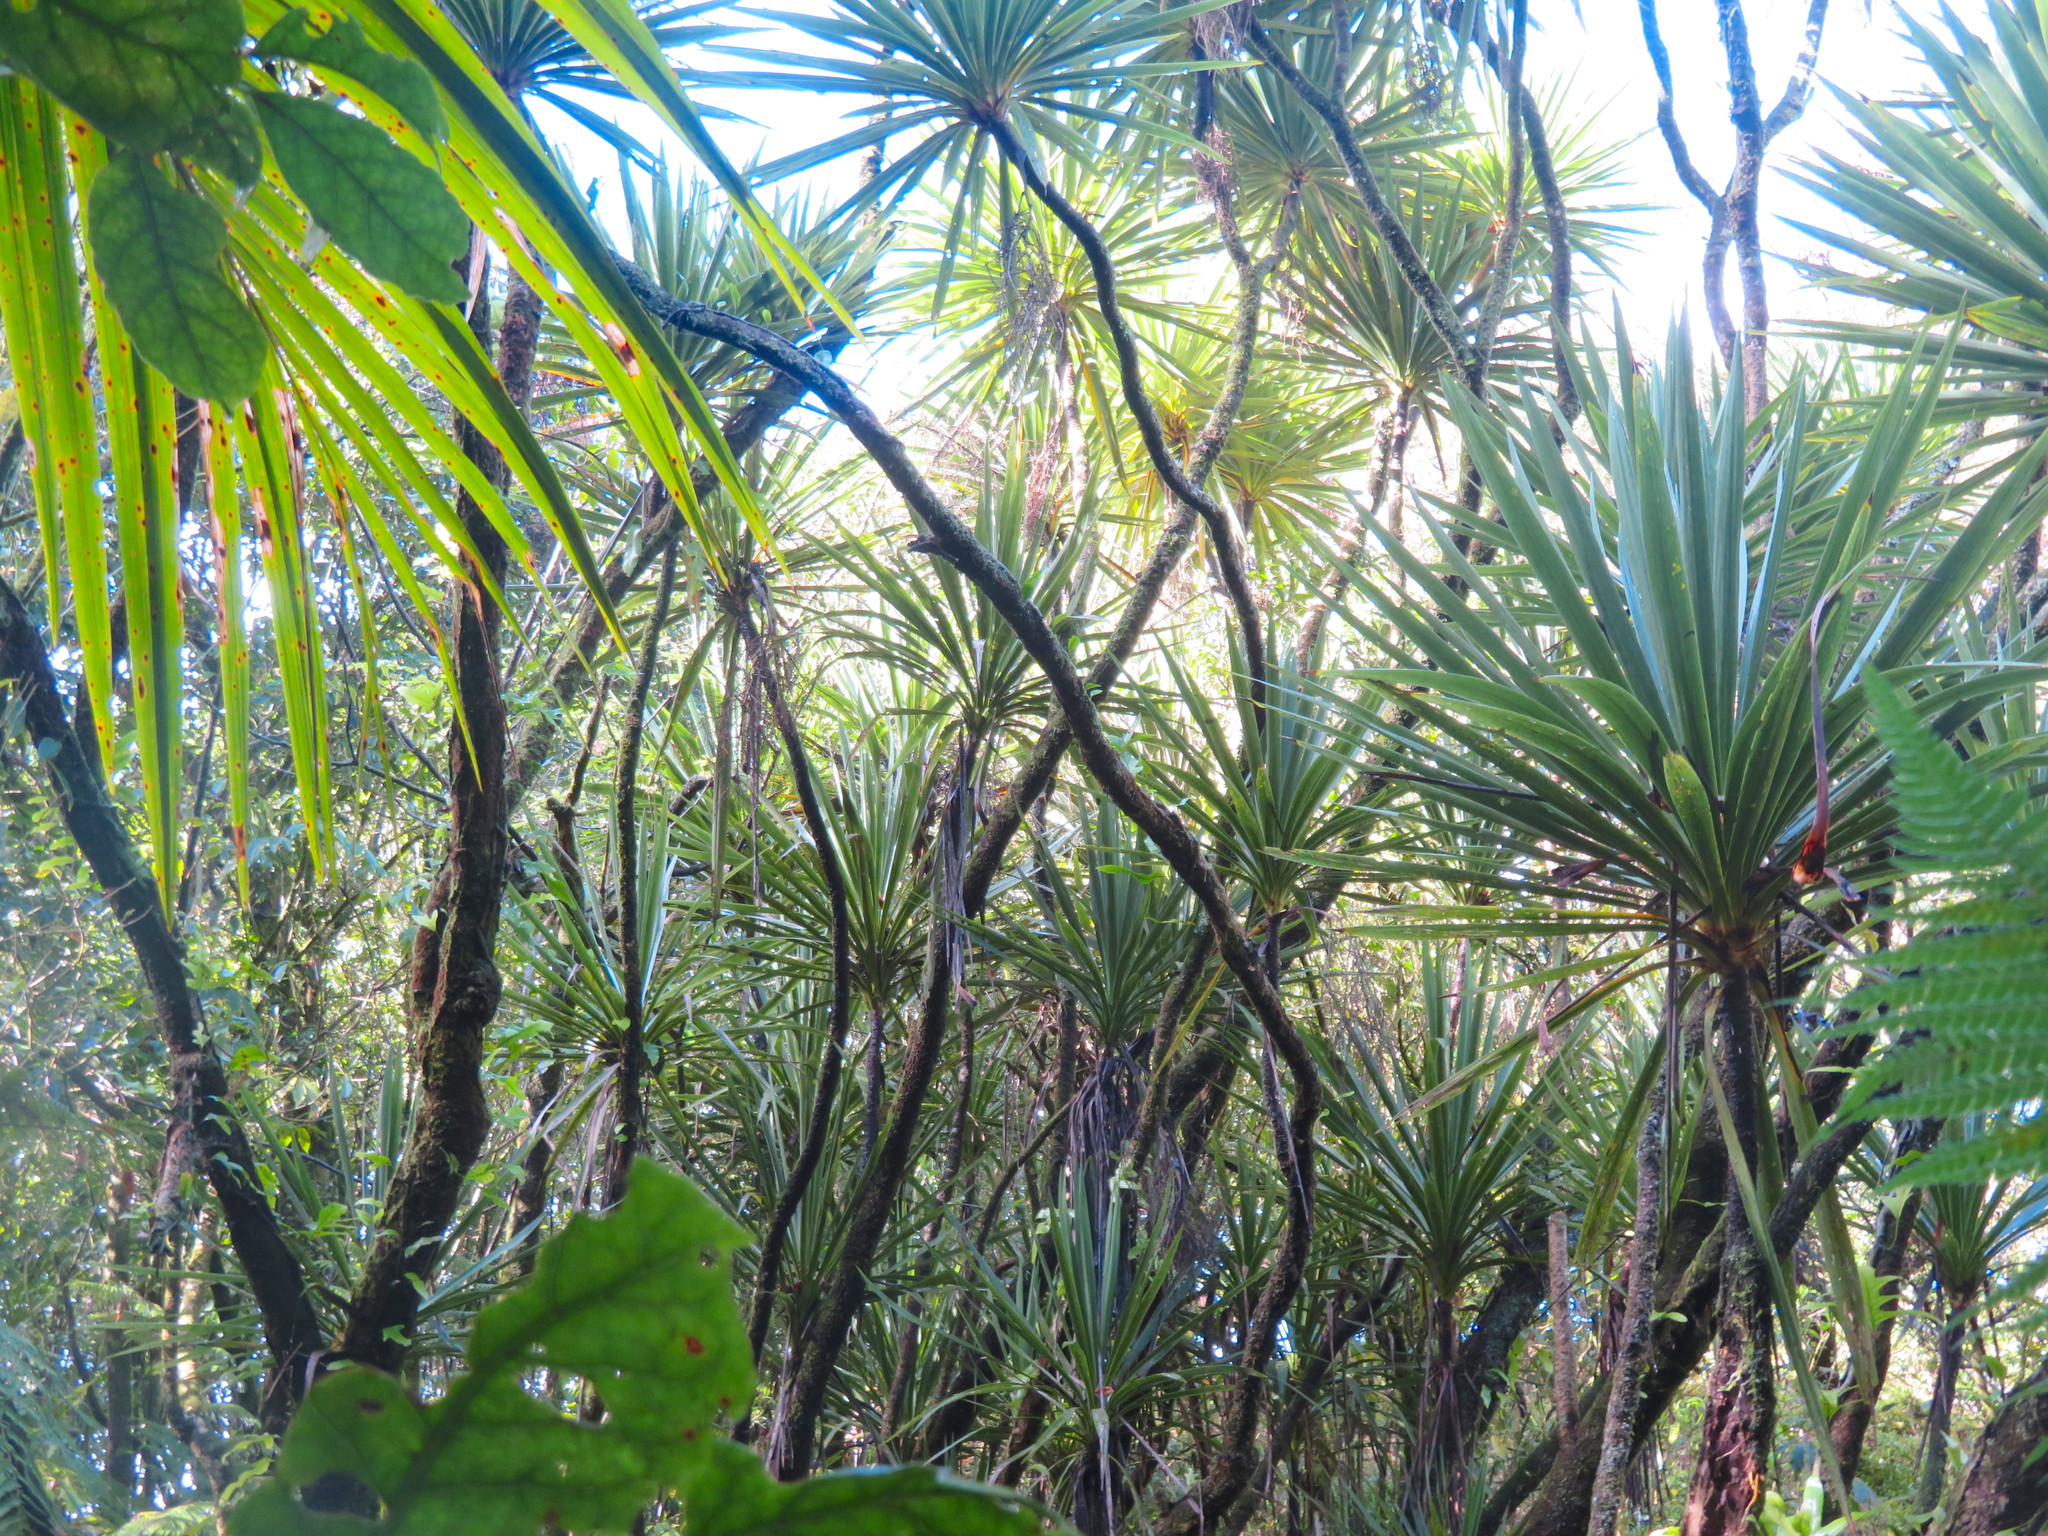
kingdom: Plantae
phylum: Tracheophyta
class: Liliopsida
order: Asparagales
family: Asparagaceae
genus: Cordyline
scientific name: Cordyline australis
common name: Cabbage-palm
